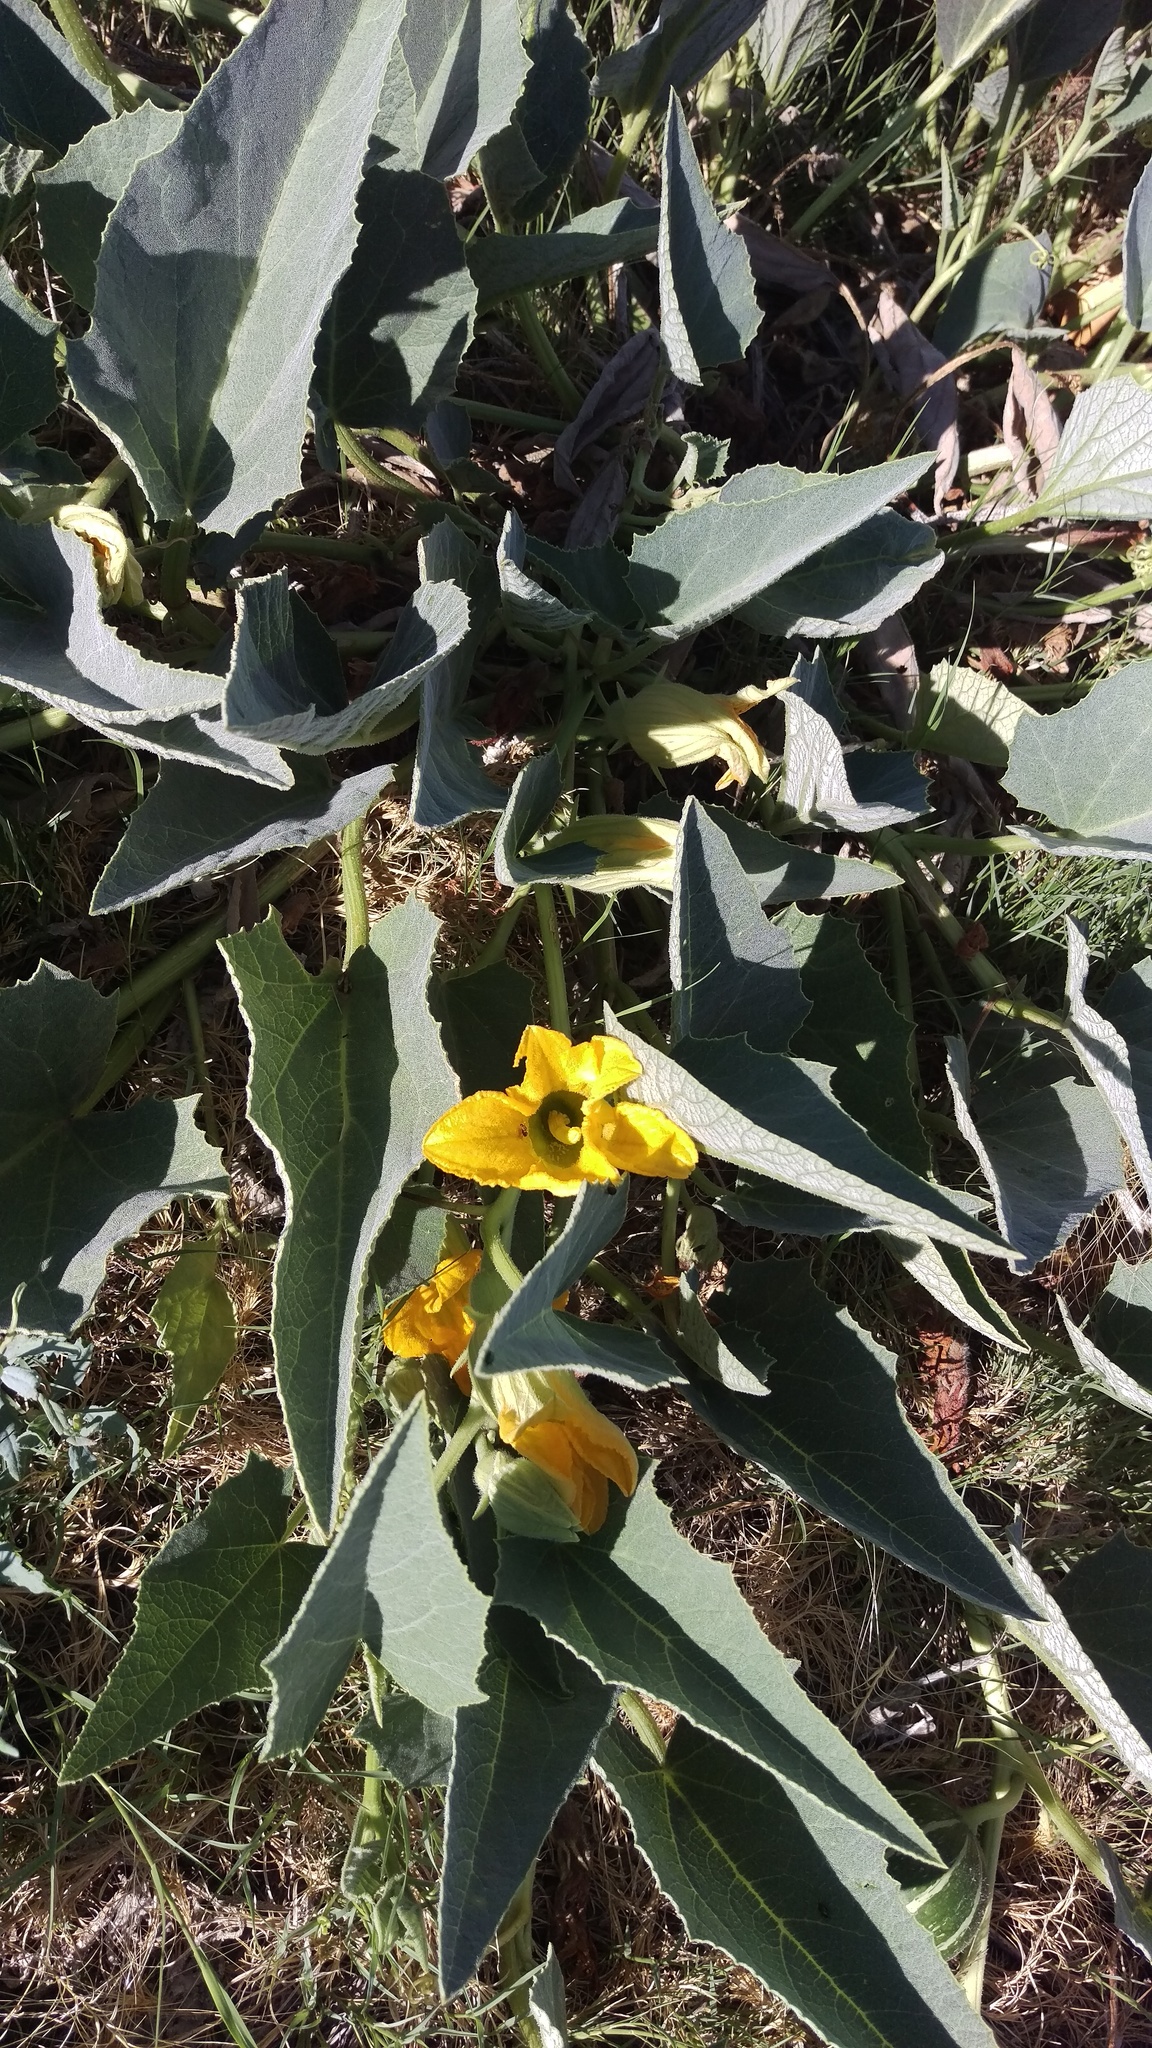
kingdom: Plantae
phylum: Tracheophyta
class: Magnoliopsida
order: Cucurbitales
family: Cucurbitaceae
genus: Cucurbita
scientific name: Cucurbita foetidissima
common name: Buffalo gourd
